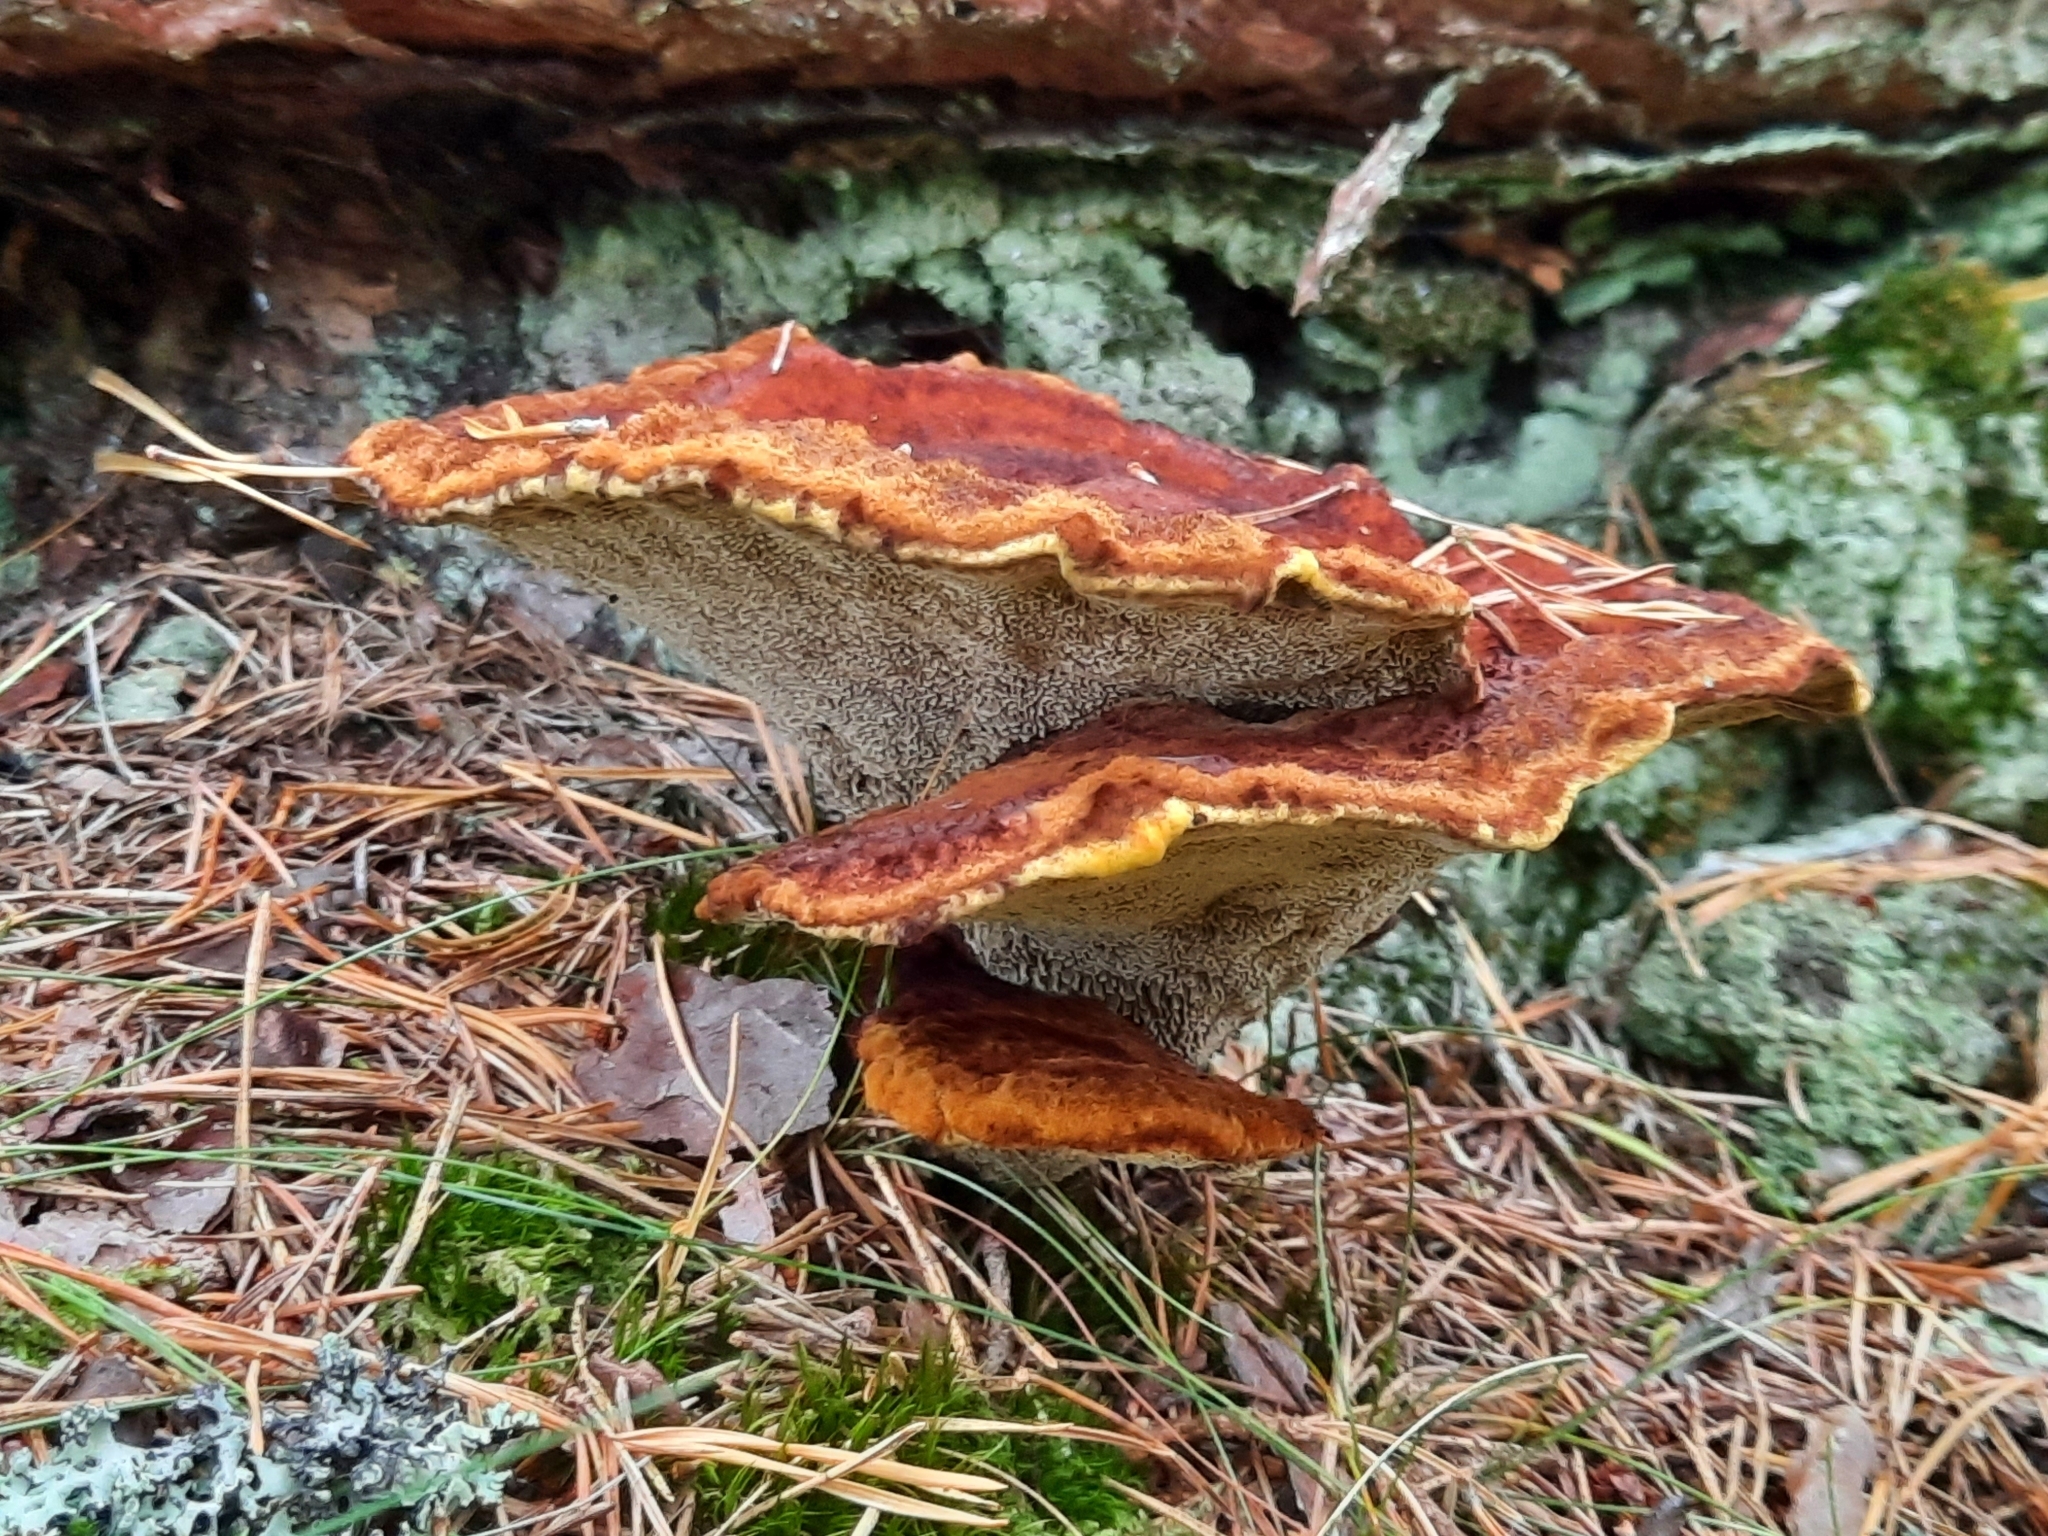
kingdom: Fungi
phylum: Basidiomycota
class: Agaricomycetes
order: Polyporales
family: Laetiporaceae
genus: Phaeolus
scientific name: Phaeolus schweinitzii
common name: Dyer's mazegill
